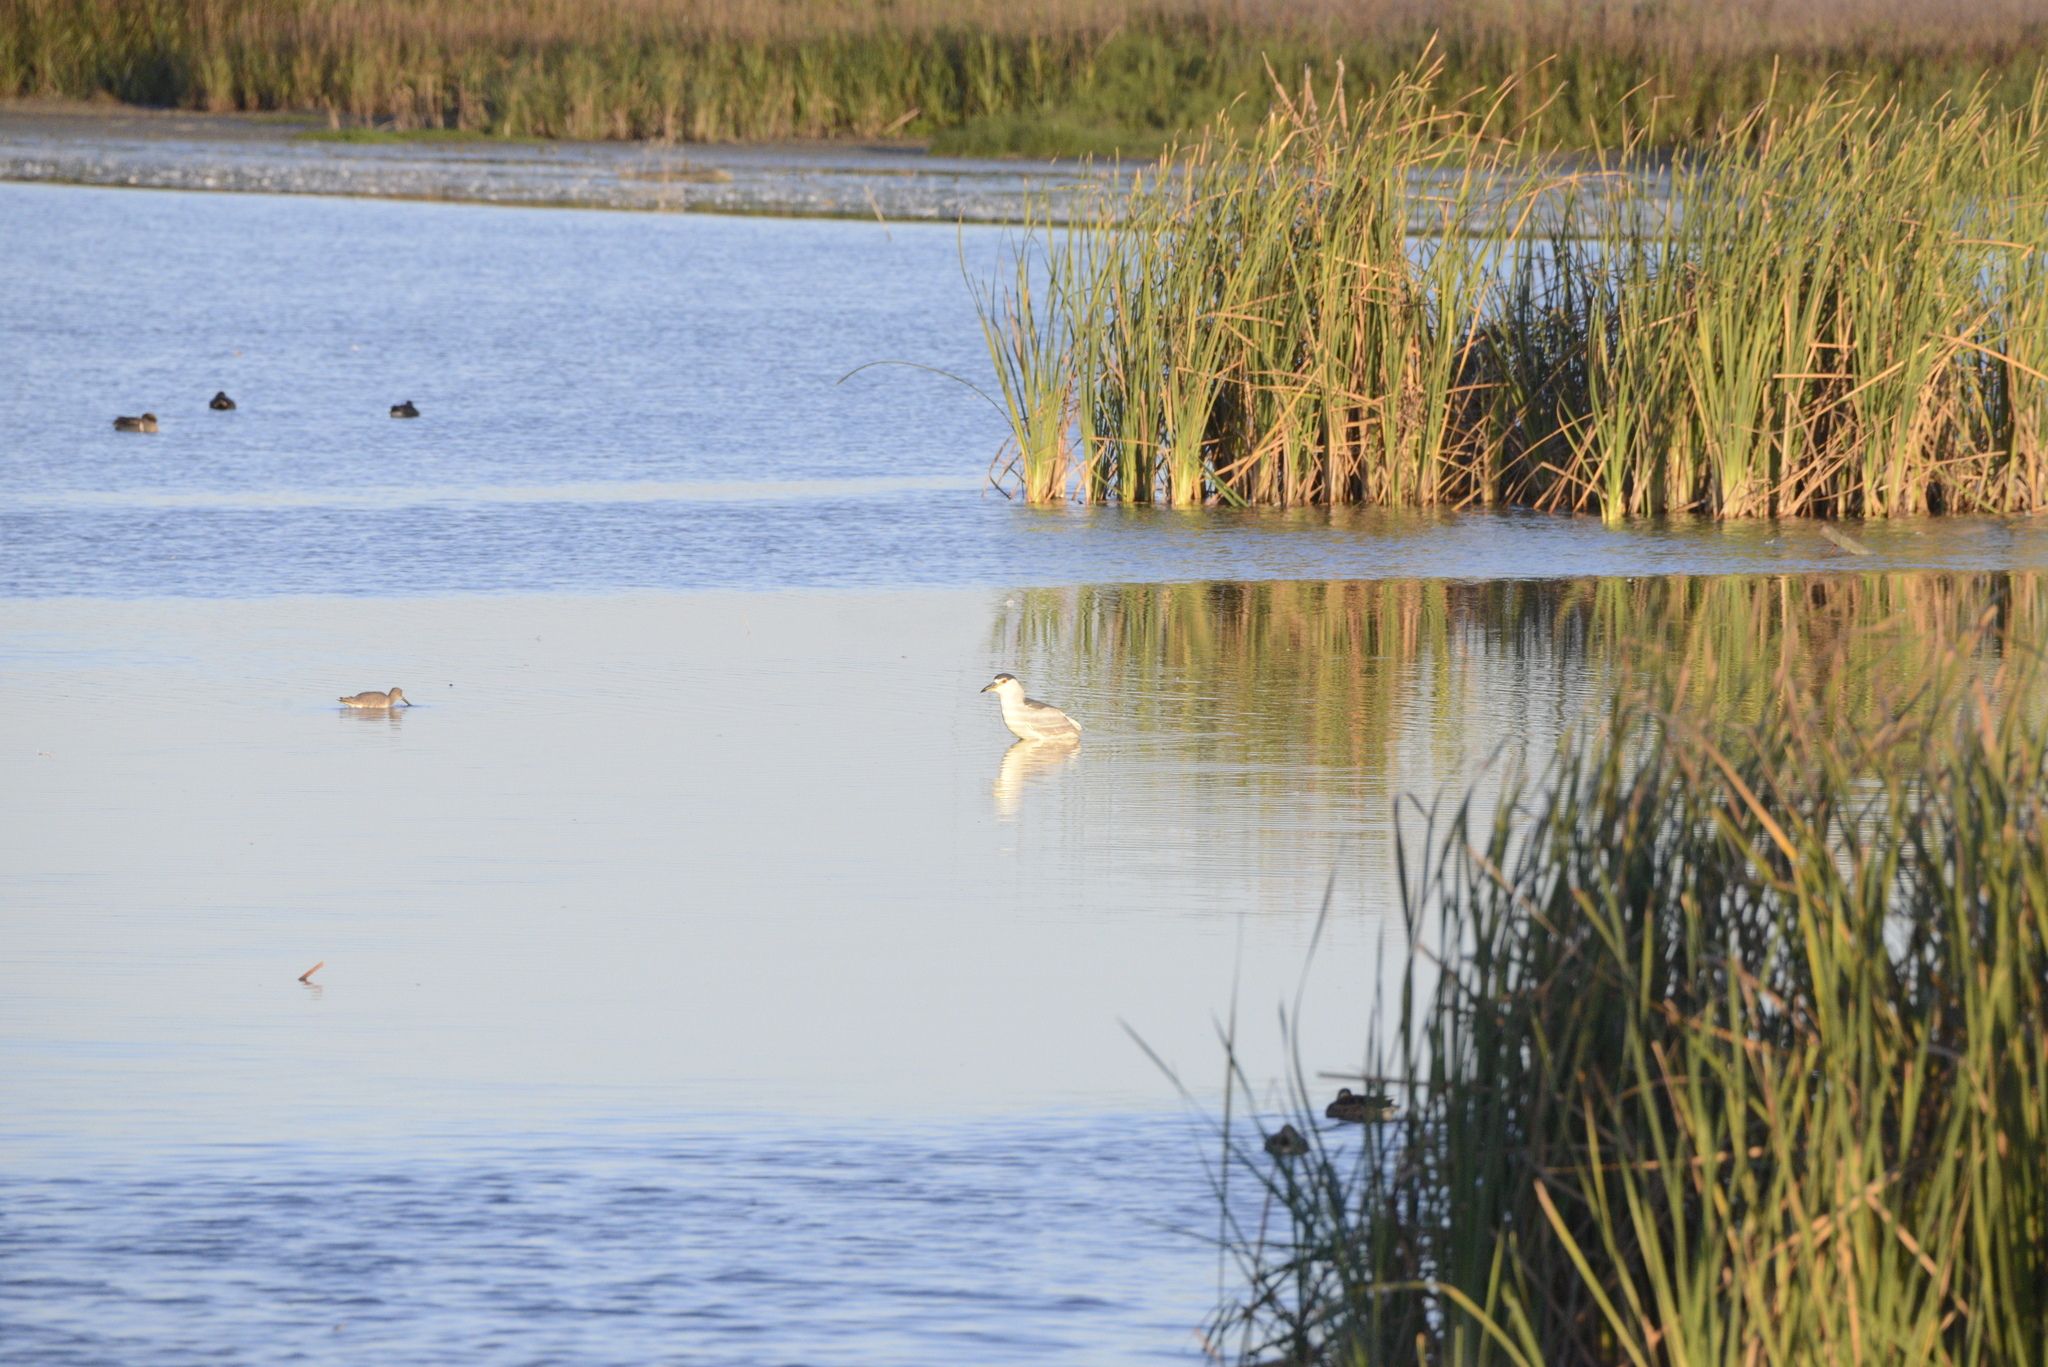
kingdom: Animalia
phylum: Chordata
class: Aves
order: Pelecaniformes
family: Ardeidae
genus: Nycticorax
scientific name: Nycticorax nycticorax
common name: Black-crowned night heron
